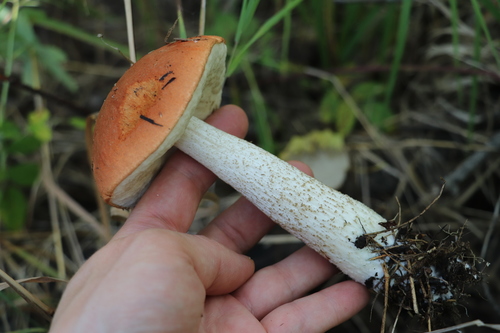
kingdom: Fungi
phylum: Basidiomycota
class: Agaricomycetes
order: Boletales
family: Boletaceae
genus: Leccinum
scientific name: Leccinum aurantiacum
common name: Orange bolete
